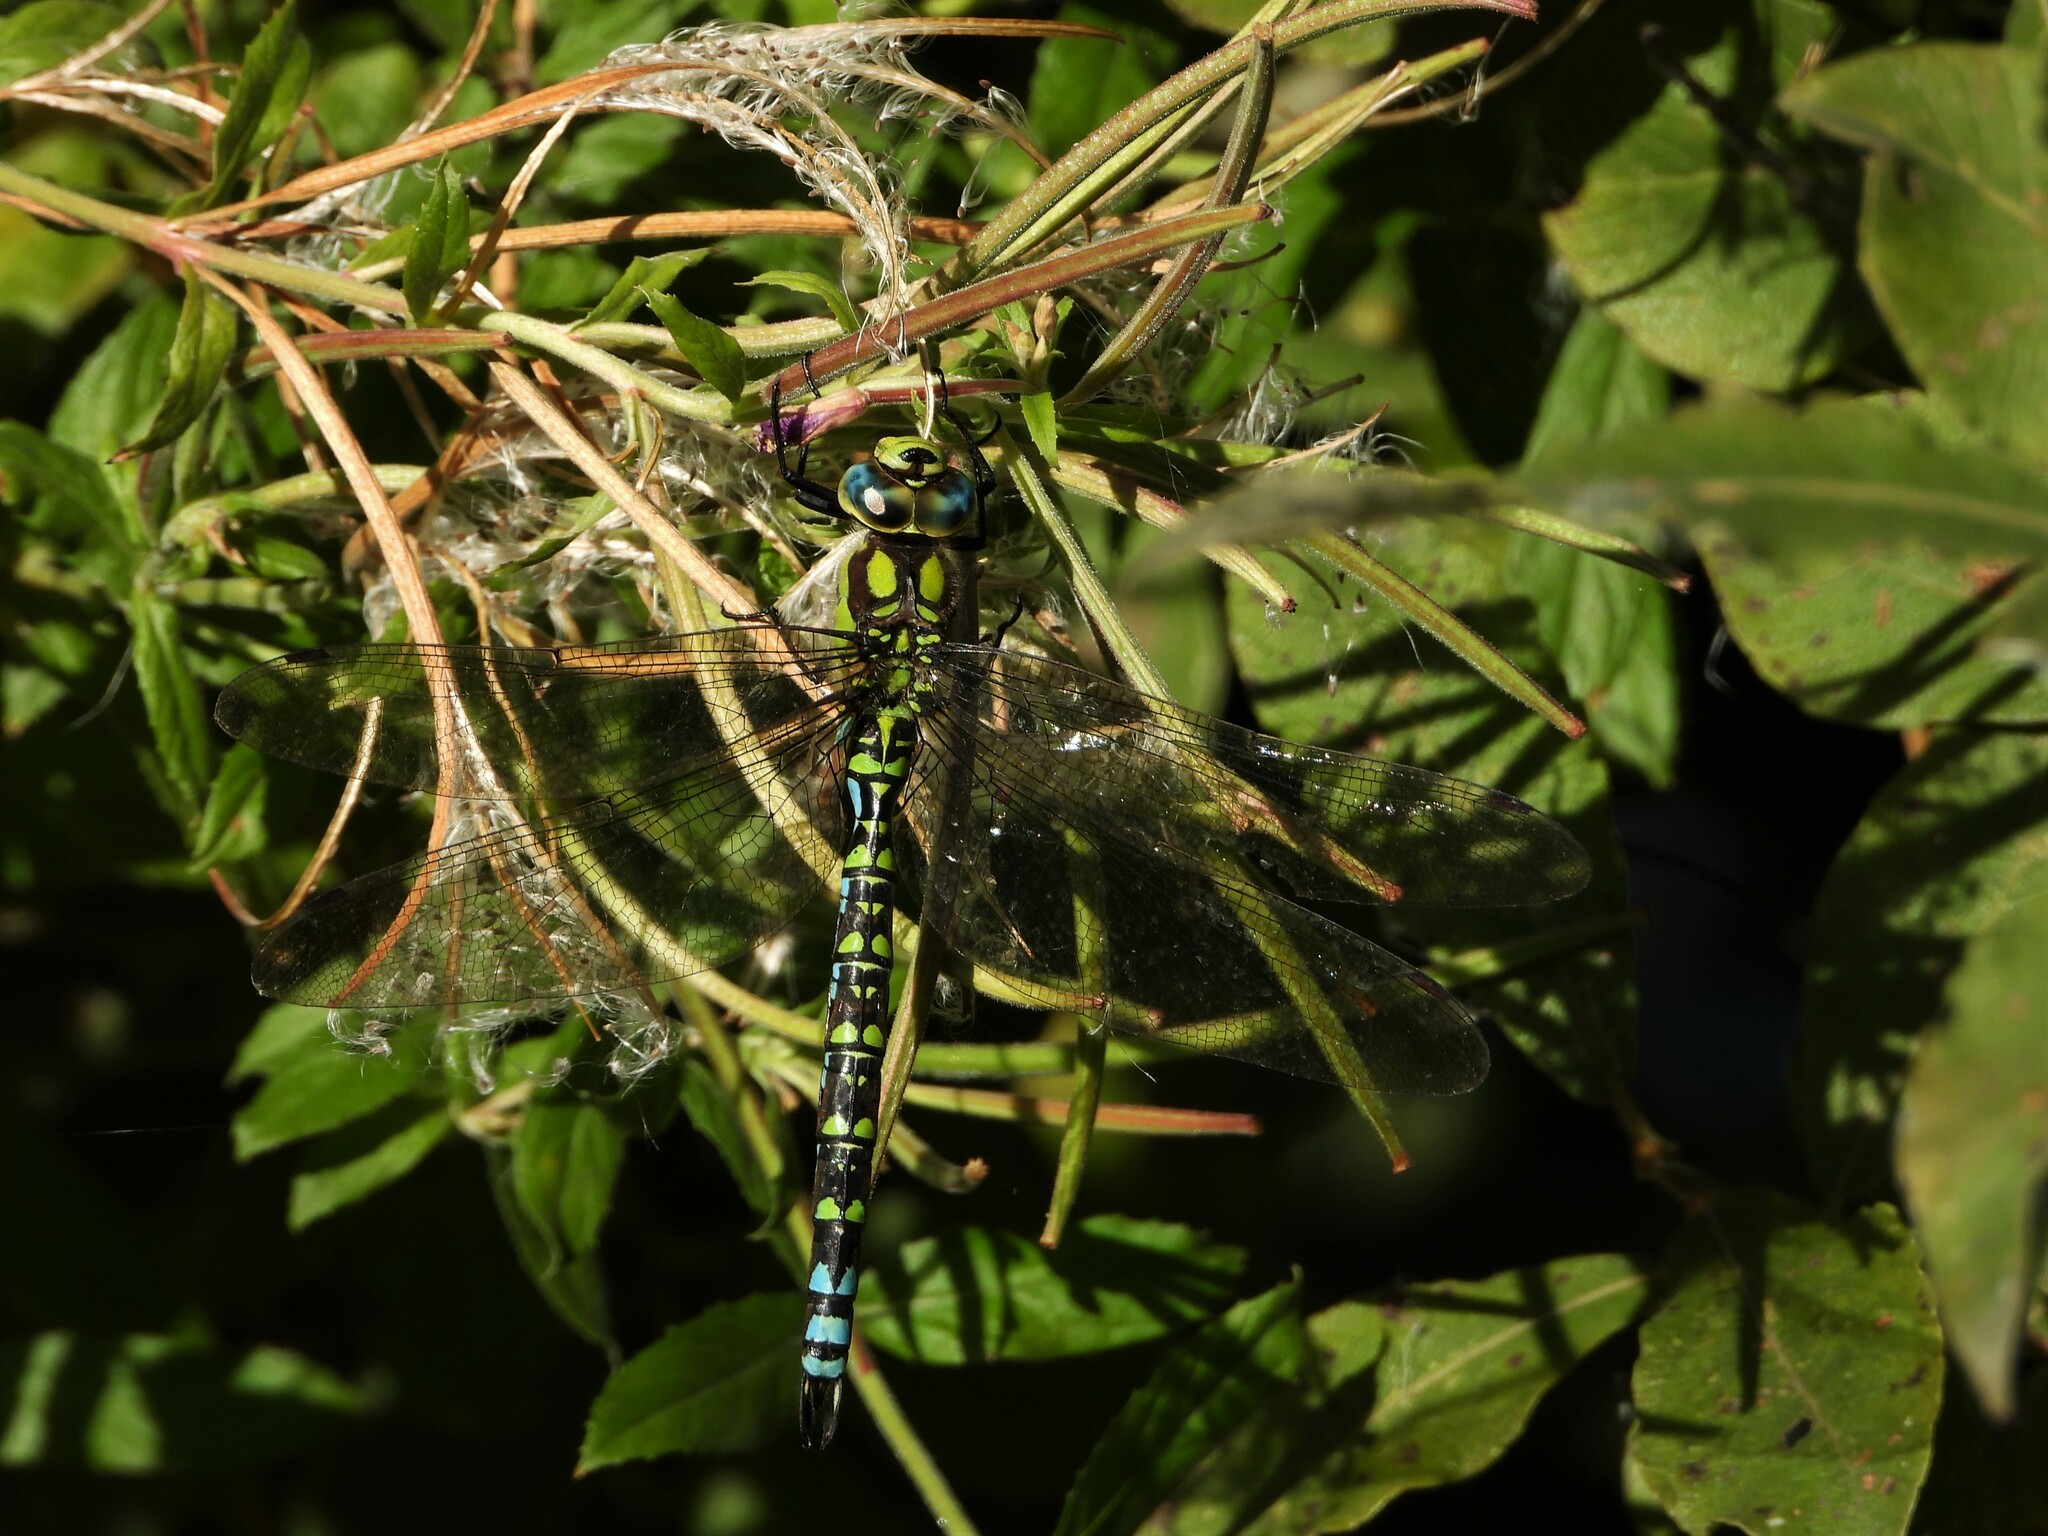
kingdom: Animalia
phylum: Arthropoda
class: Insecta
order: Odonata
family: Aeshnidae
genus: Aeshna
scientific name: Aeshna cyanea
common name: Southern hawker
